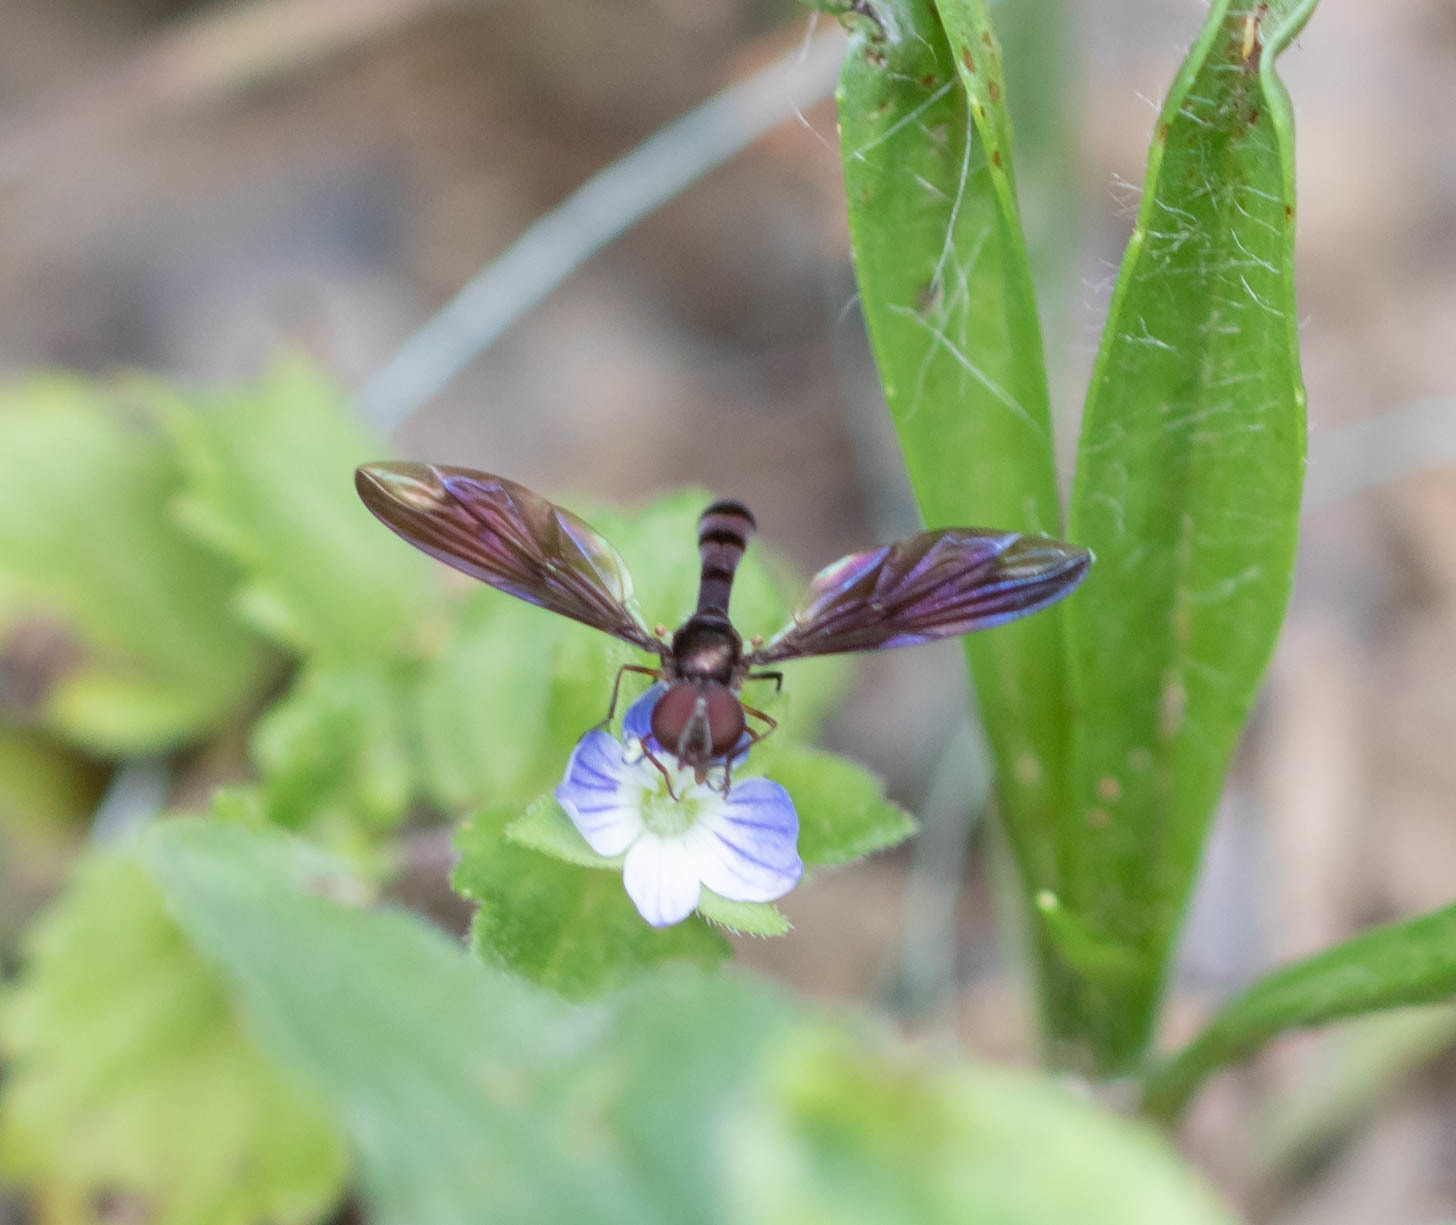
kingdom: Animalia
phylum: Arthropoda
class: Insecta
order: Diptera
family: Syrphidae
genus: Ocyptamus
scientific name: Ocyptamus fuscipennis
